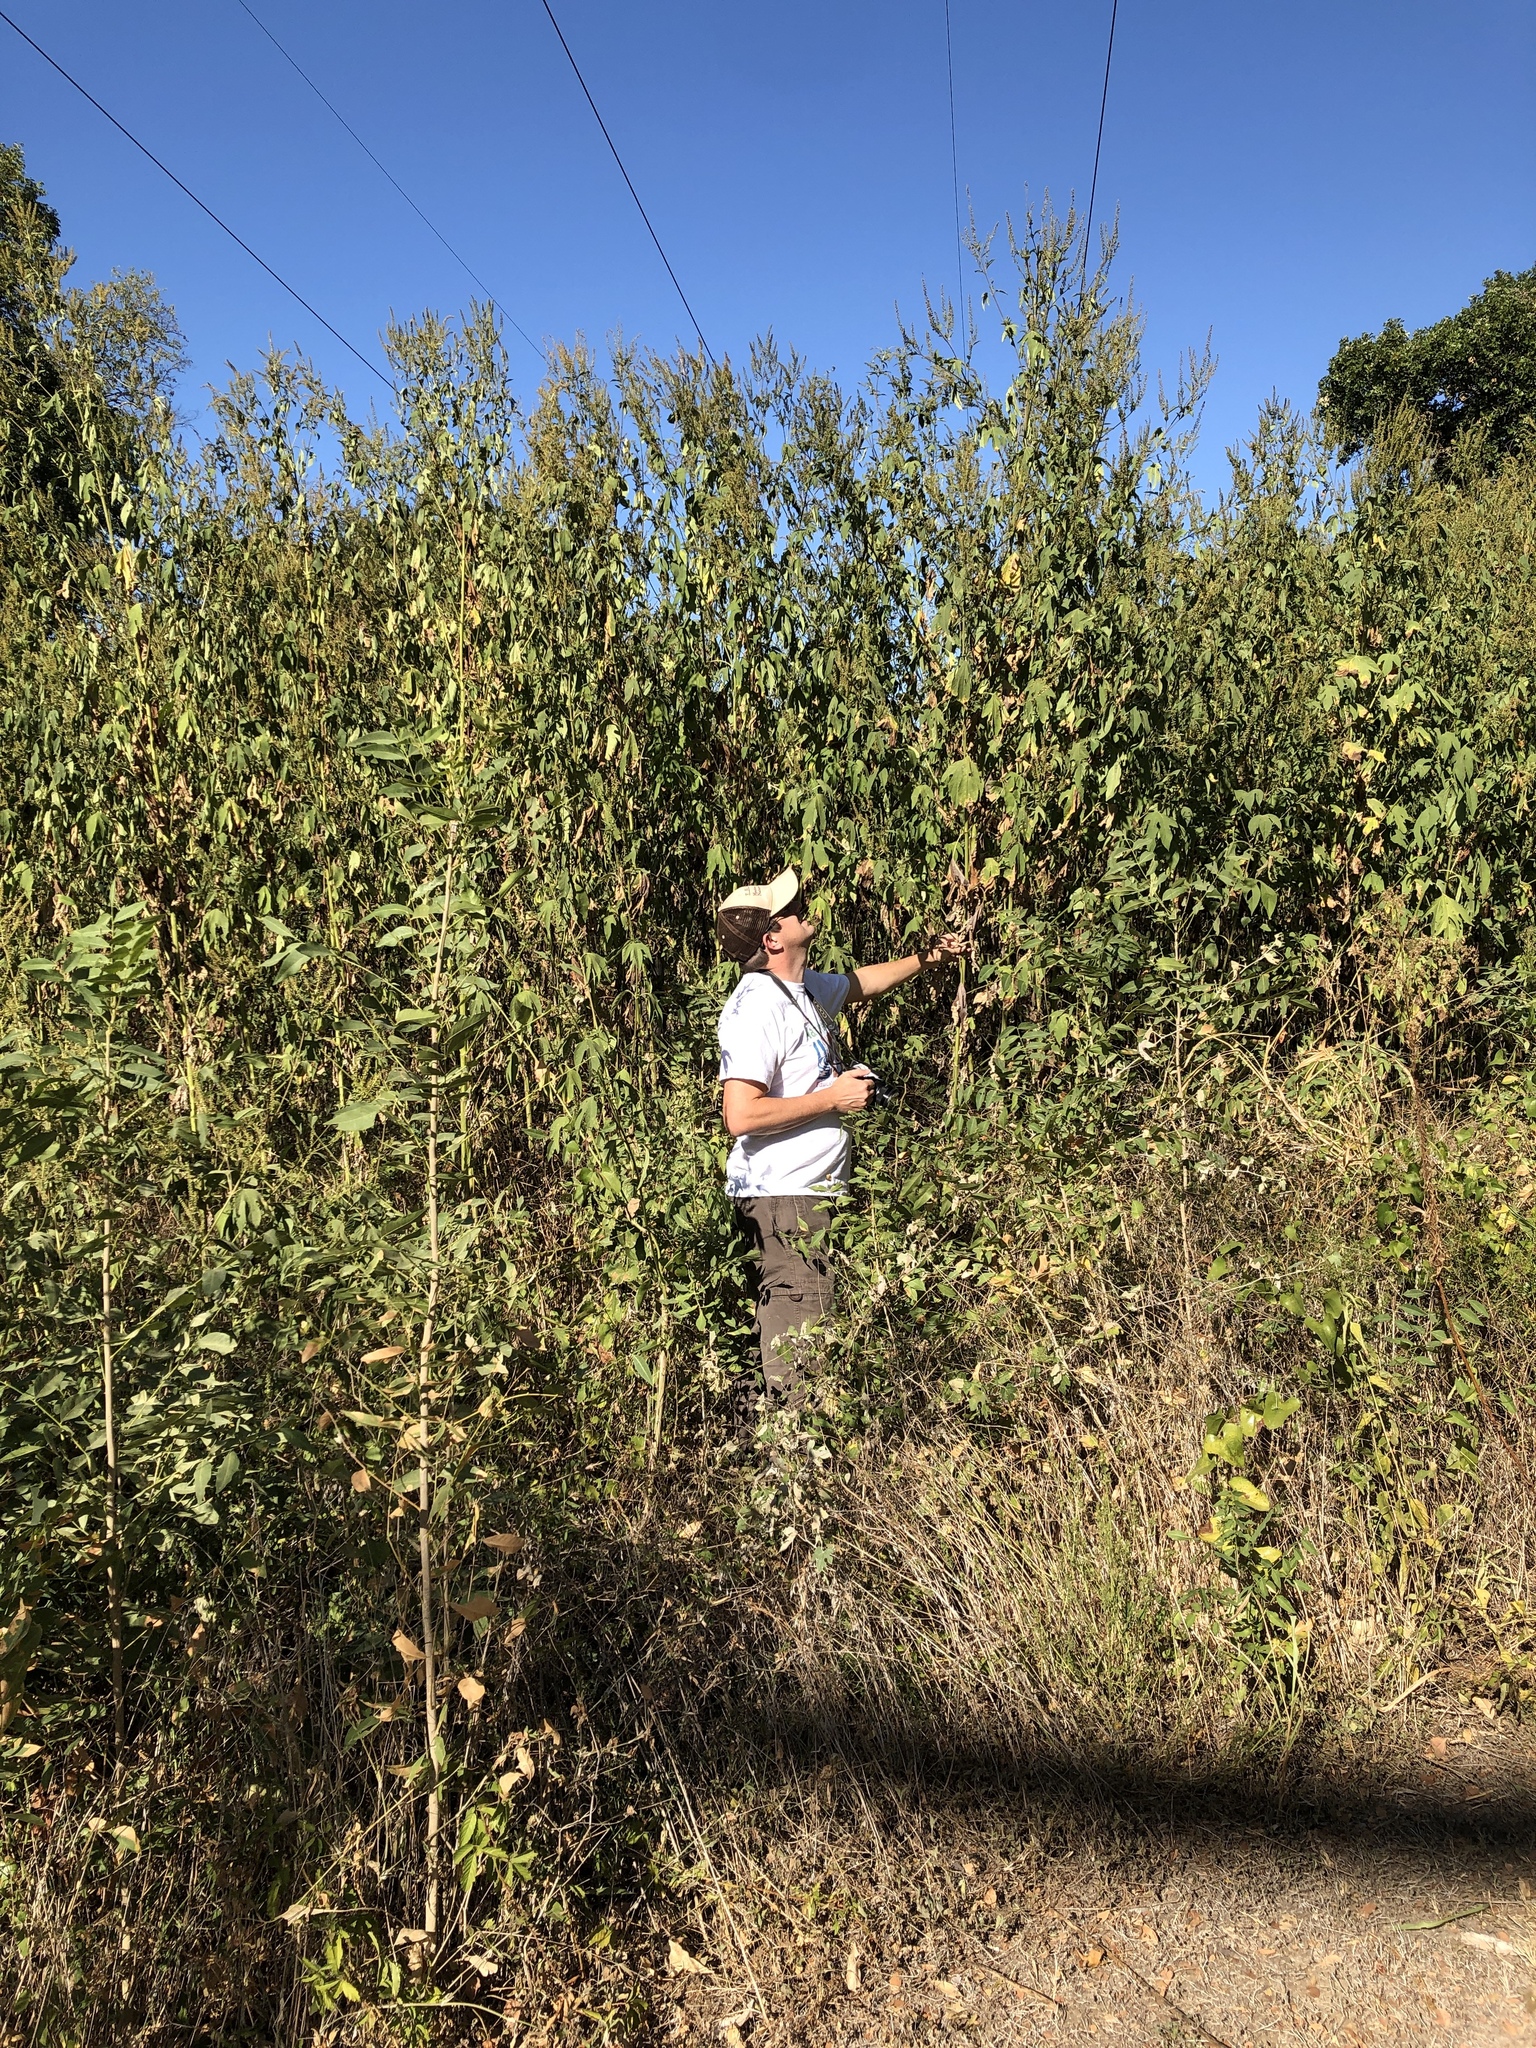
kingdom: Plantae
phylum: Tracheophyta
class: Magnoliopsida
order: Asterales
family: Asteraceae
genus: Ambrosia
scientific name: Ambrosia trifida
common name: Giant ragweed
